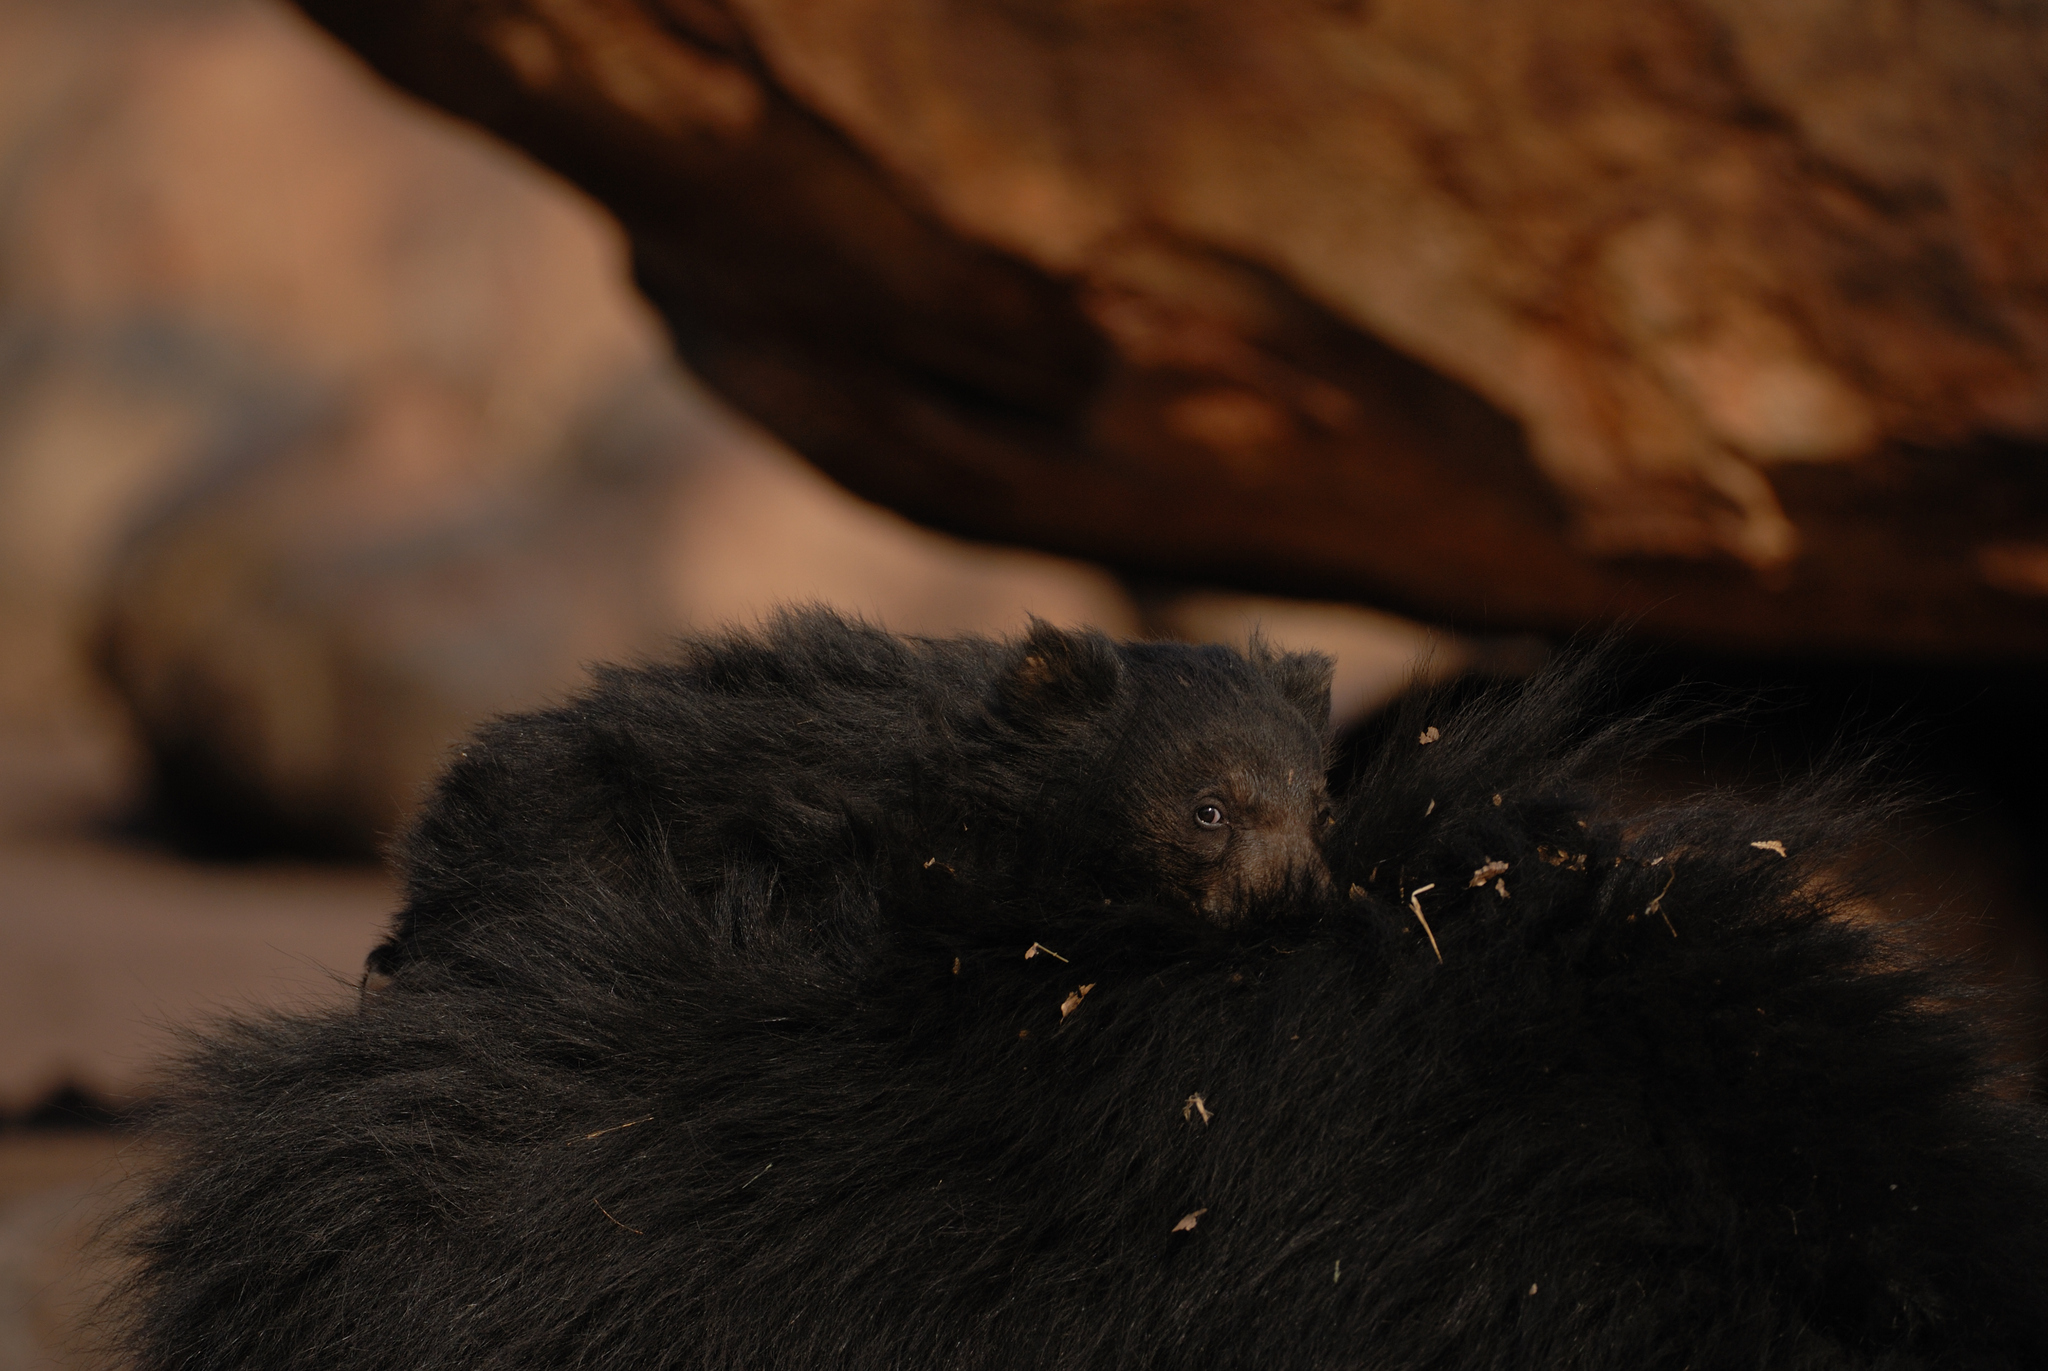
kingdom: Animalia
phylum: Chordata
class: Mammalia
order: Carnivora
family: Ursidae
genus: Melursus
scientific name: Melursus ursinus
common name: Sloth bear
